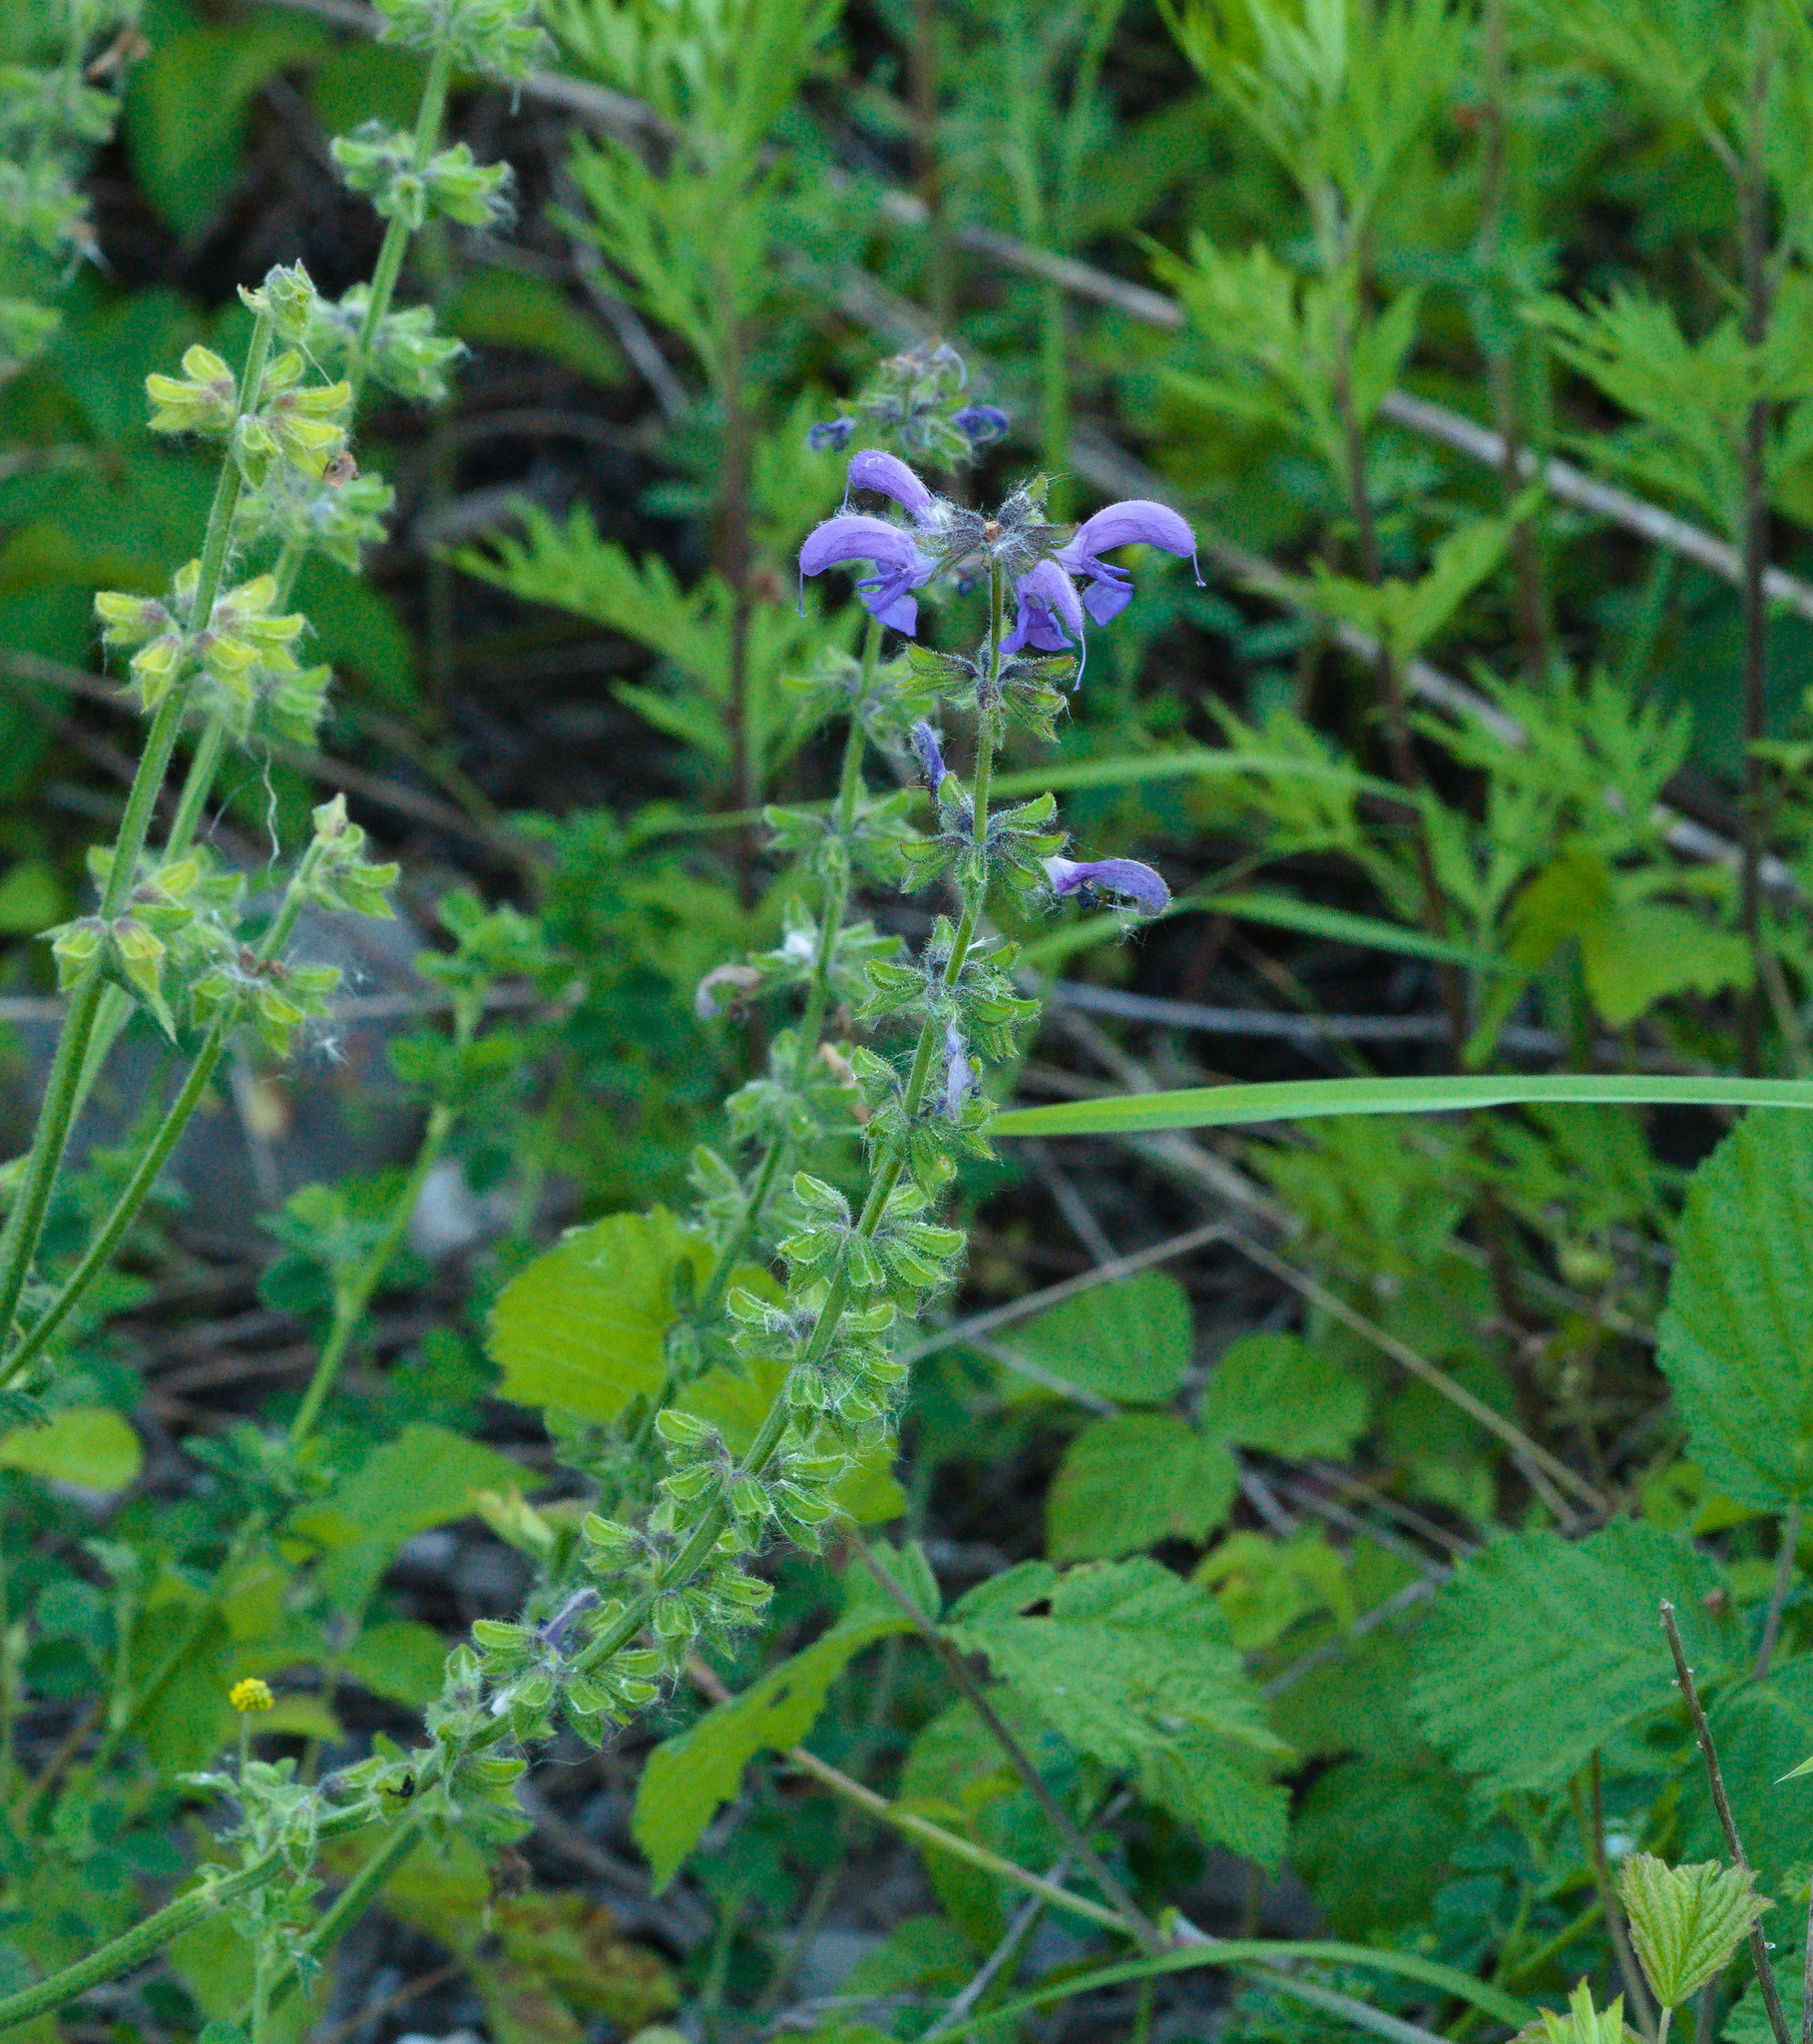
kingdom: Plantae
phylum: Tracheophyta
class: Magnoliopsida
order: Lamiales
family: Lamiaceae
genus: Salvia
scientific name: Salvia pratensis
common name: Meadow sage
